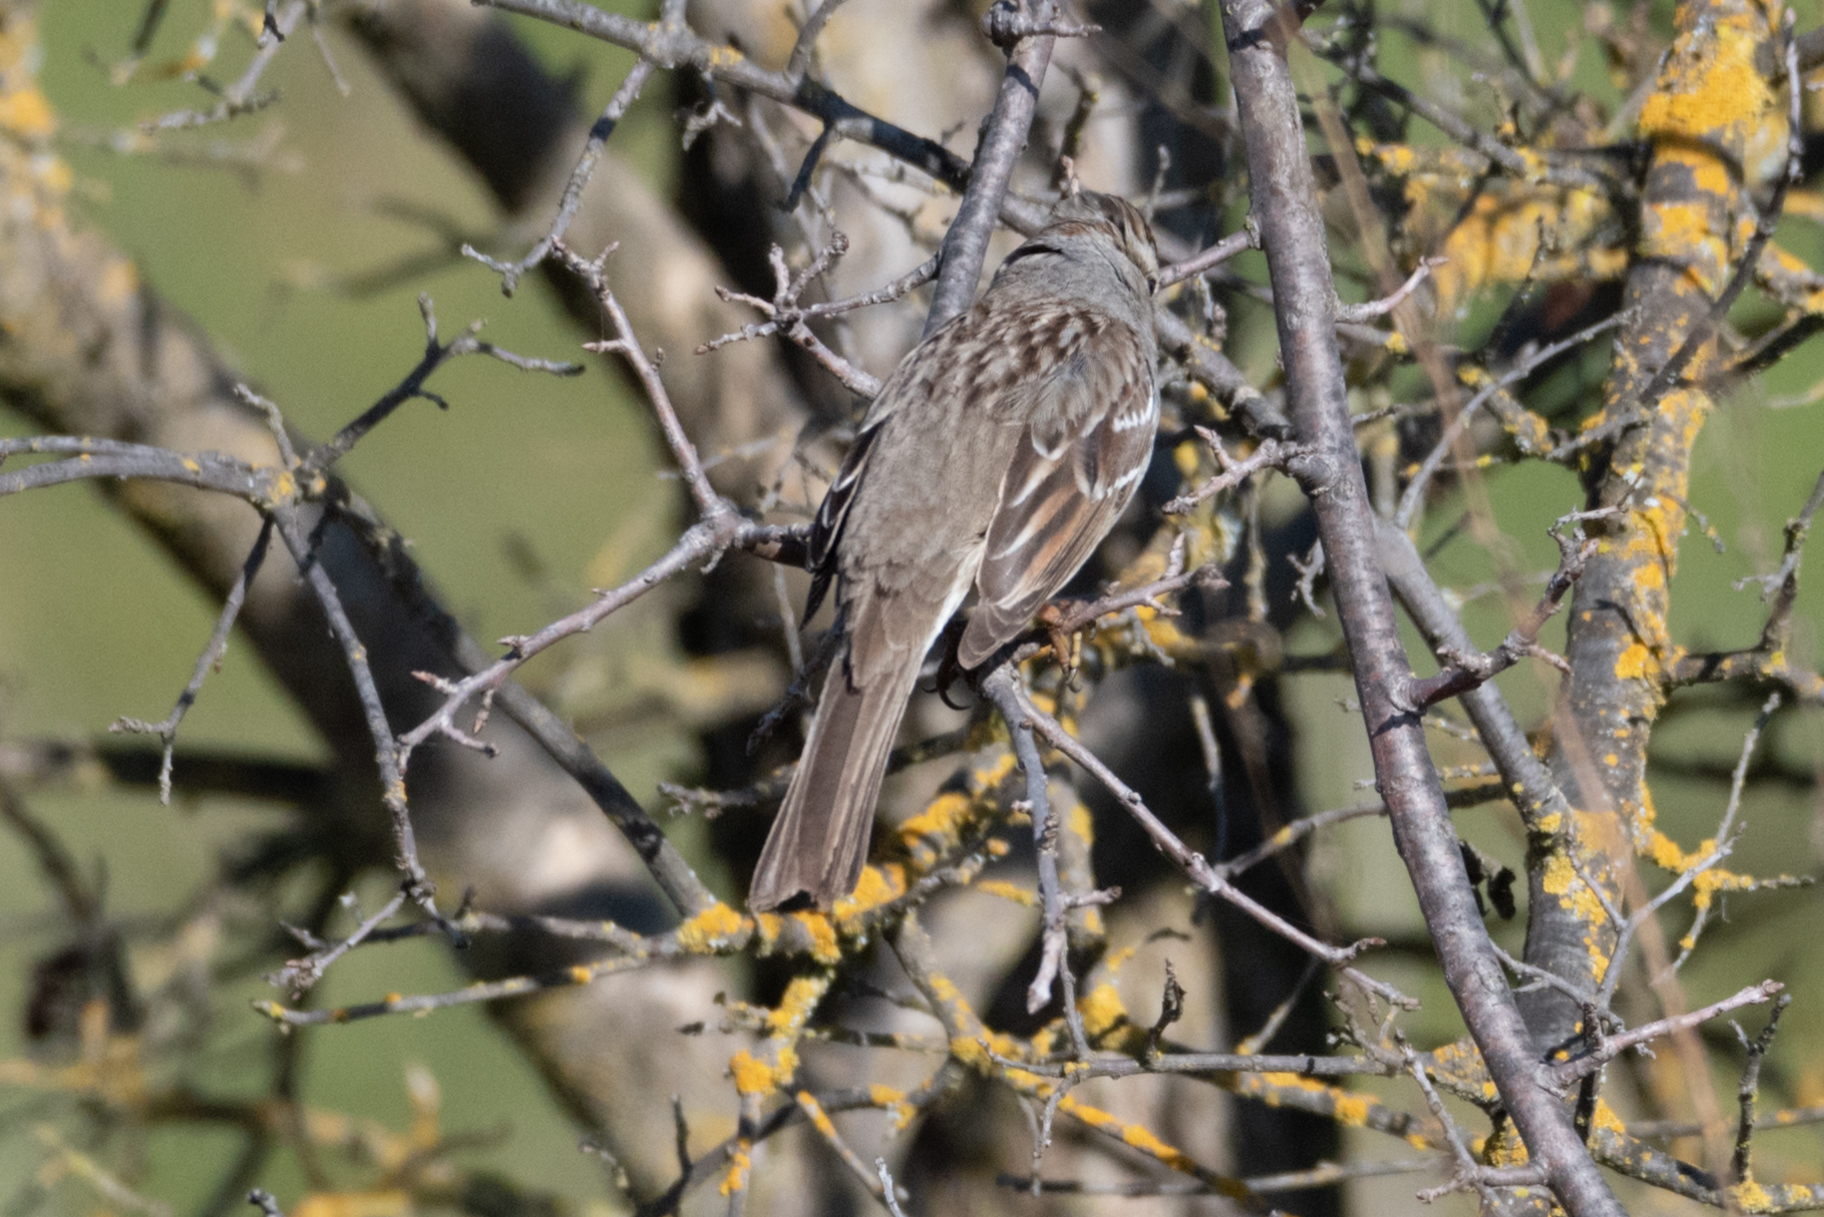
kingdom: Animalia
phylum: Chordata
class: Aves
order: Passeriformes
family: Passerellidae
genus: Zonotrichia
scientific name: Zonotrichia leucophrys
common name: White-crowned sparrow
